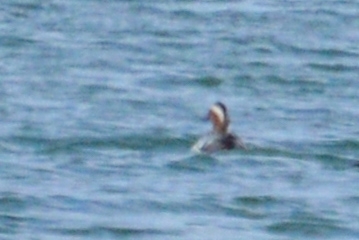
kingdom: Animalia
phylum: Chordata
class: Aves
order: Anseriformes
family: Anatidae
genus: Spatula
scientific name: Spatula querquedula
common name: Garganey
